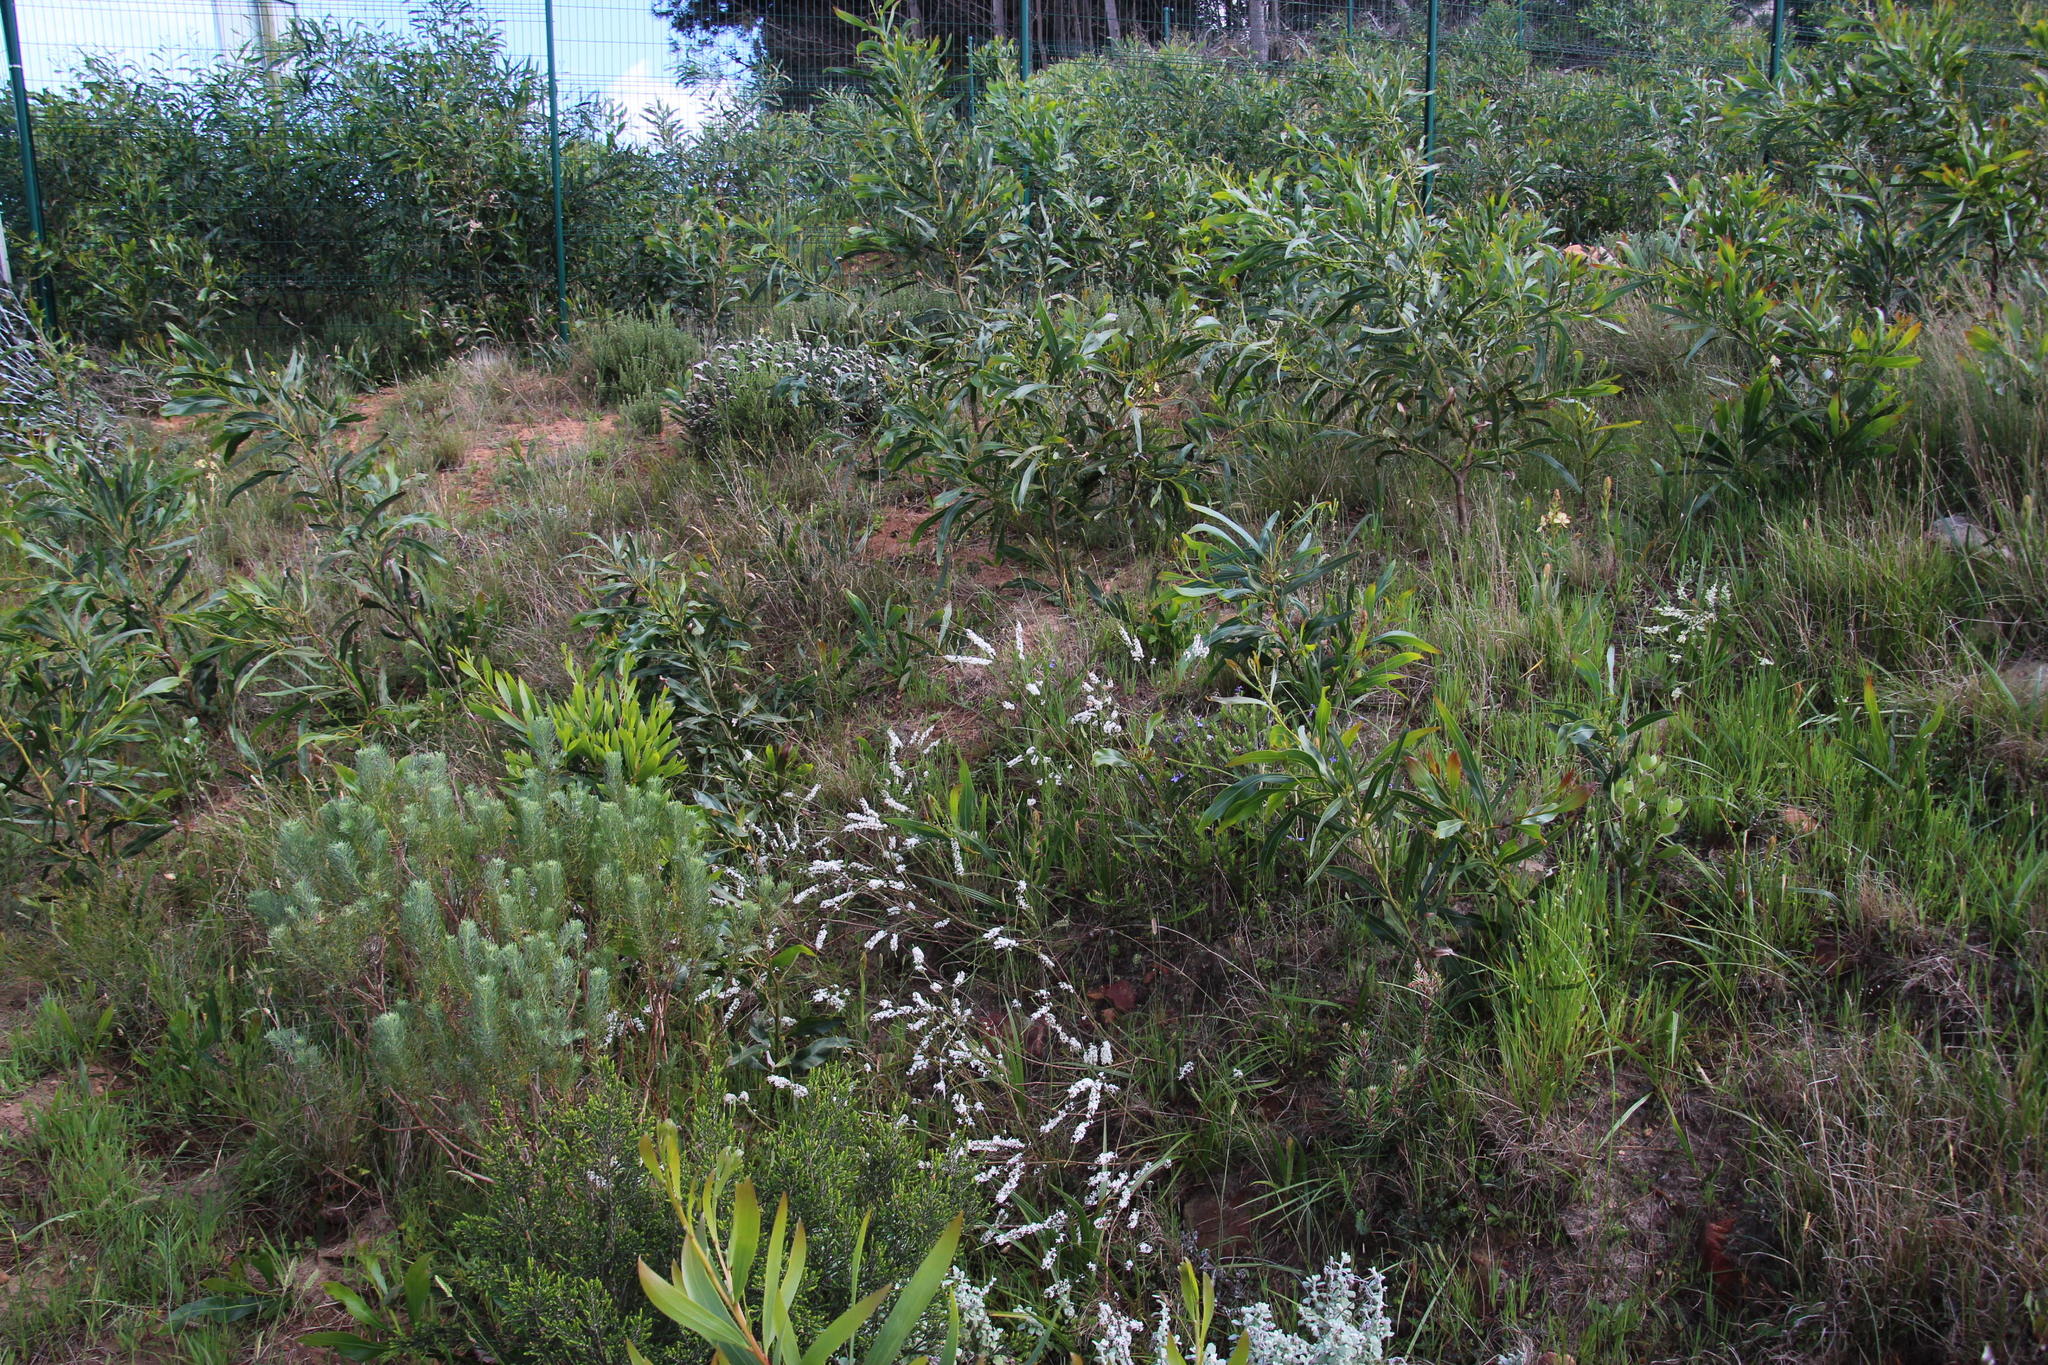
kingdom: Plantae
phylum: Tracheophyta
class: Liliopsida
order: Commelinales
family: Haemodoraceae
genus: Wachendorfia
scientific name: Wachendorfia paniculata
